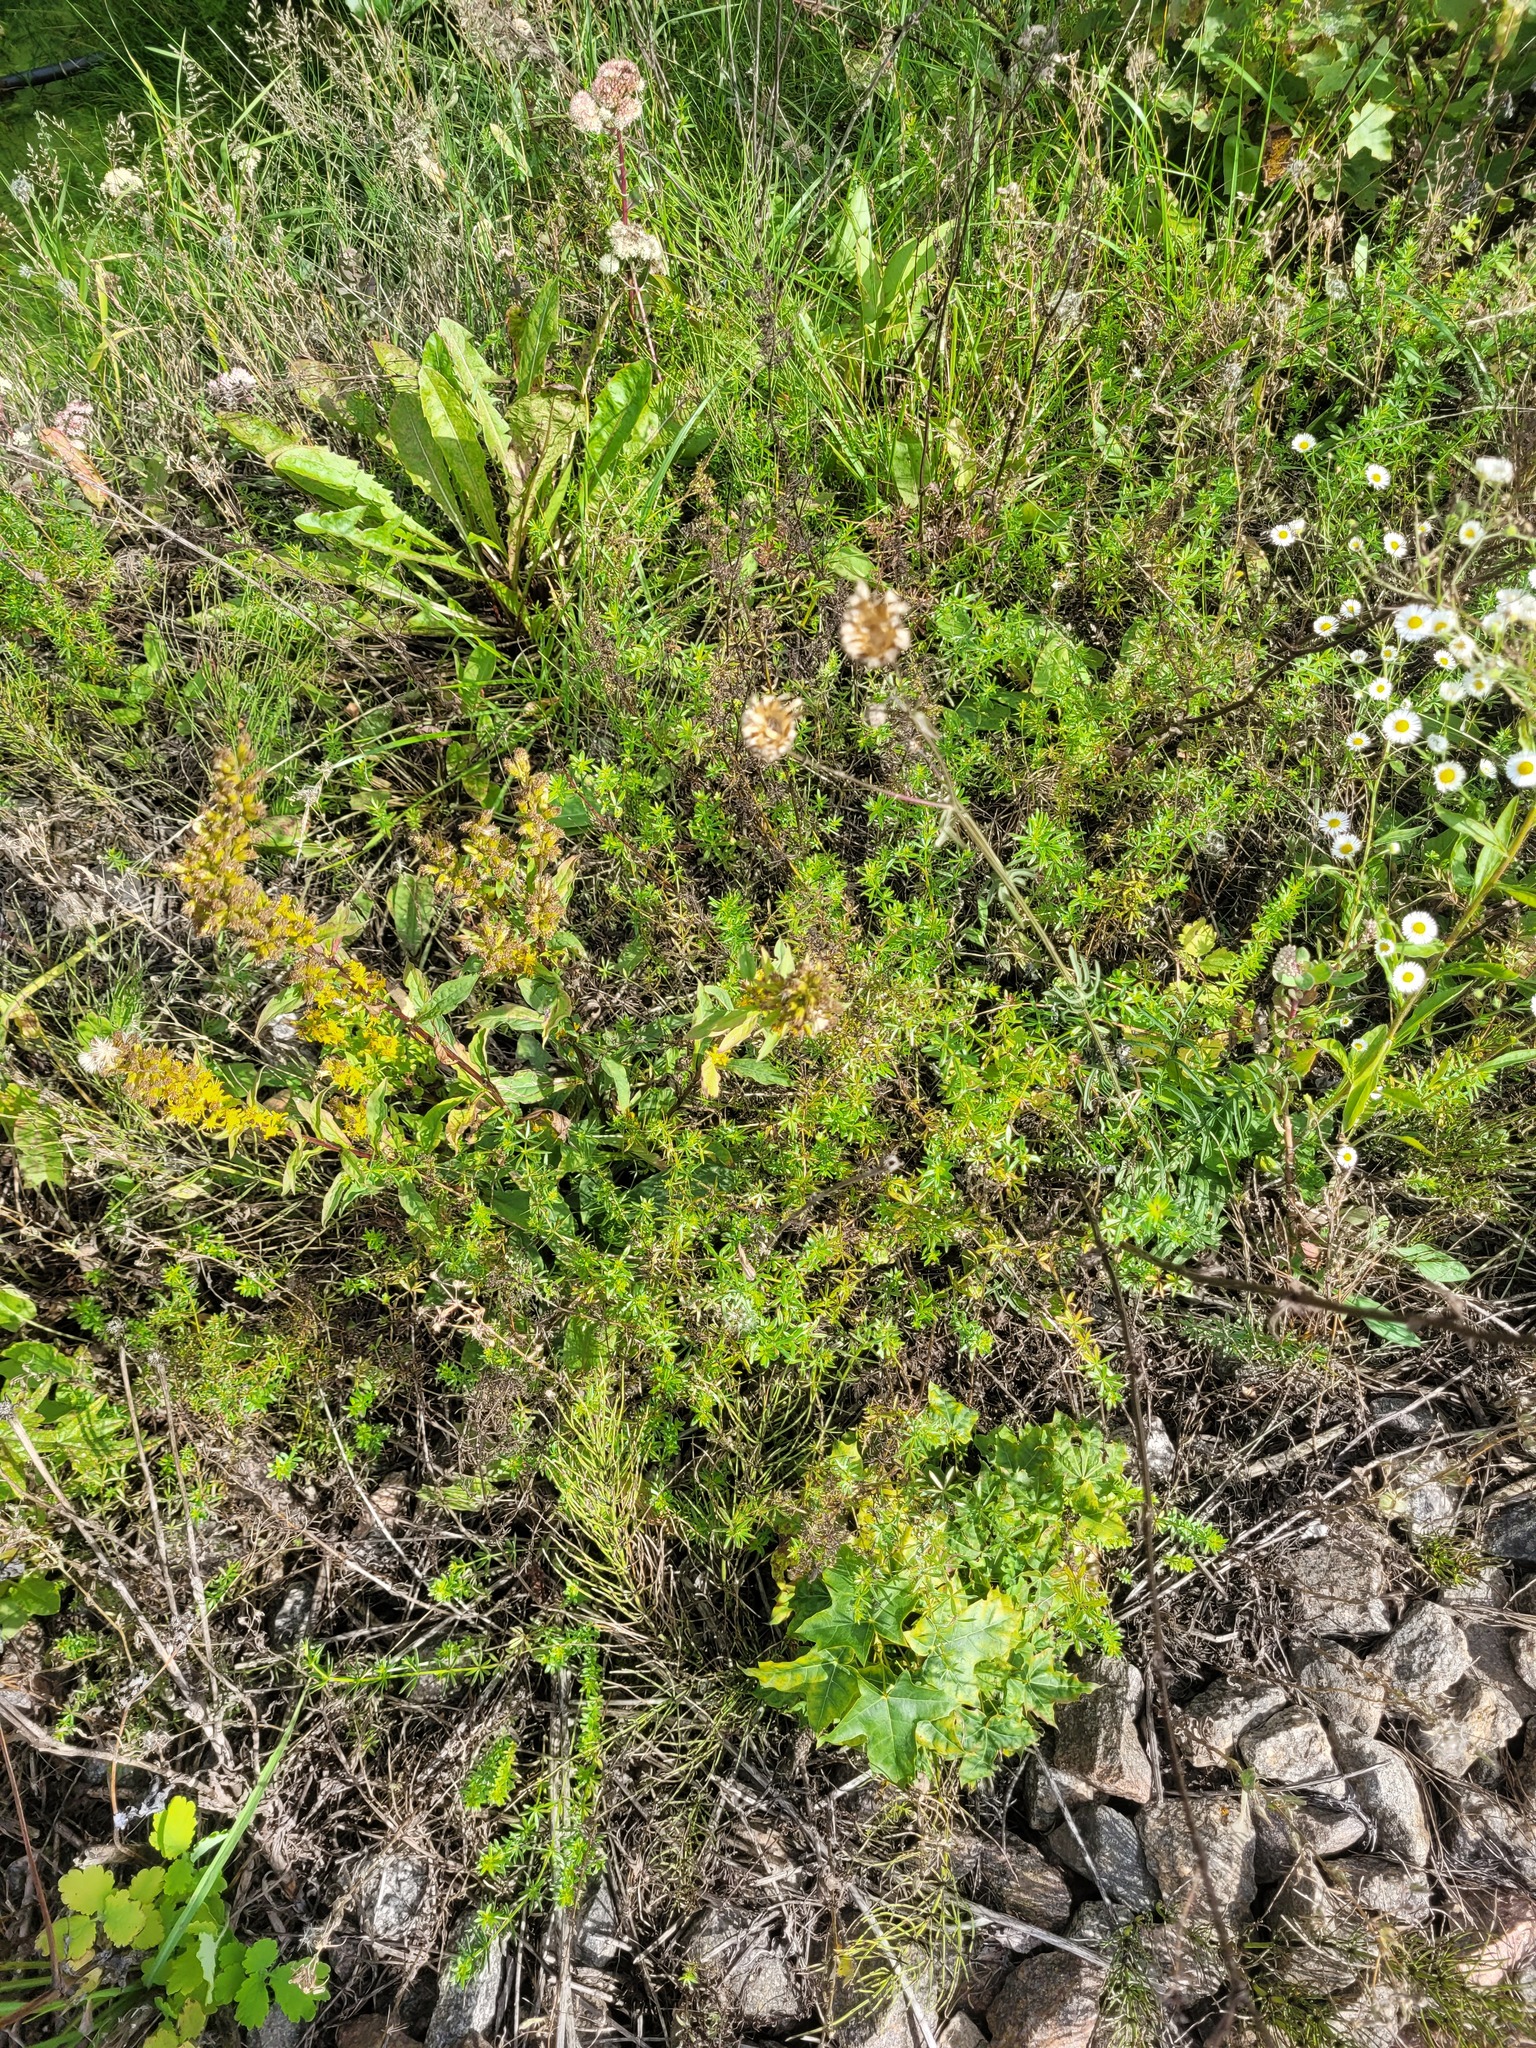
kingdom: Plantae
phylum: Tracheophyta
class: Magnoliopsida
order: Asterales
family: Asteraceae
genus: Centaurea
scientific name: Centaurea scabiosa
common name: Greater knapweed
